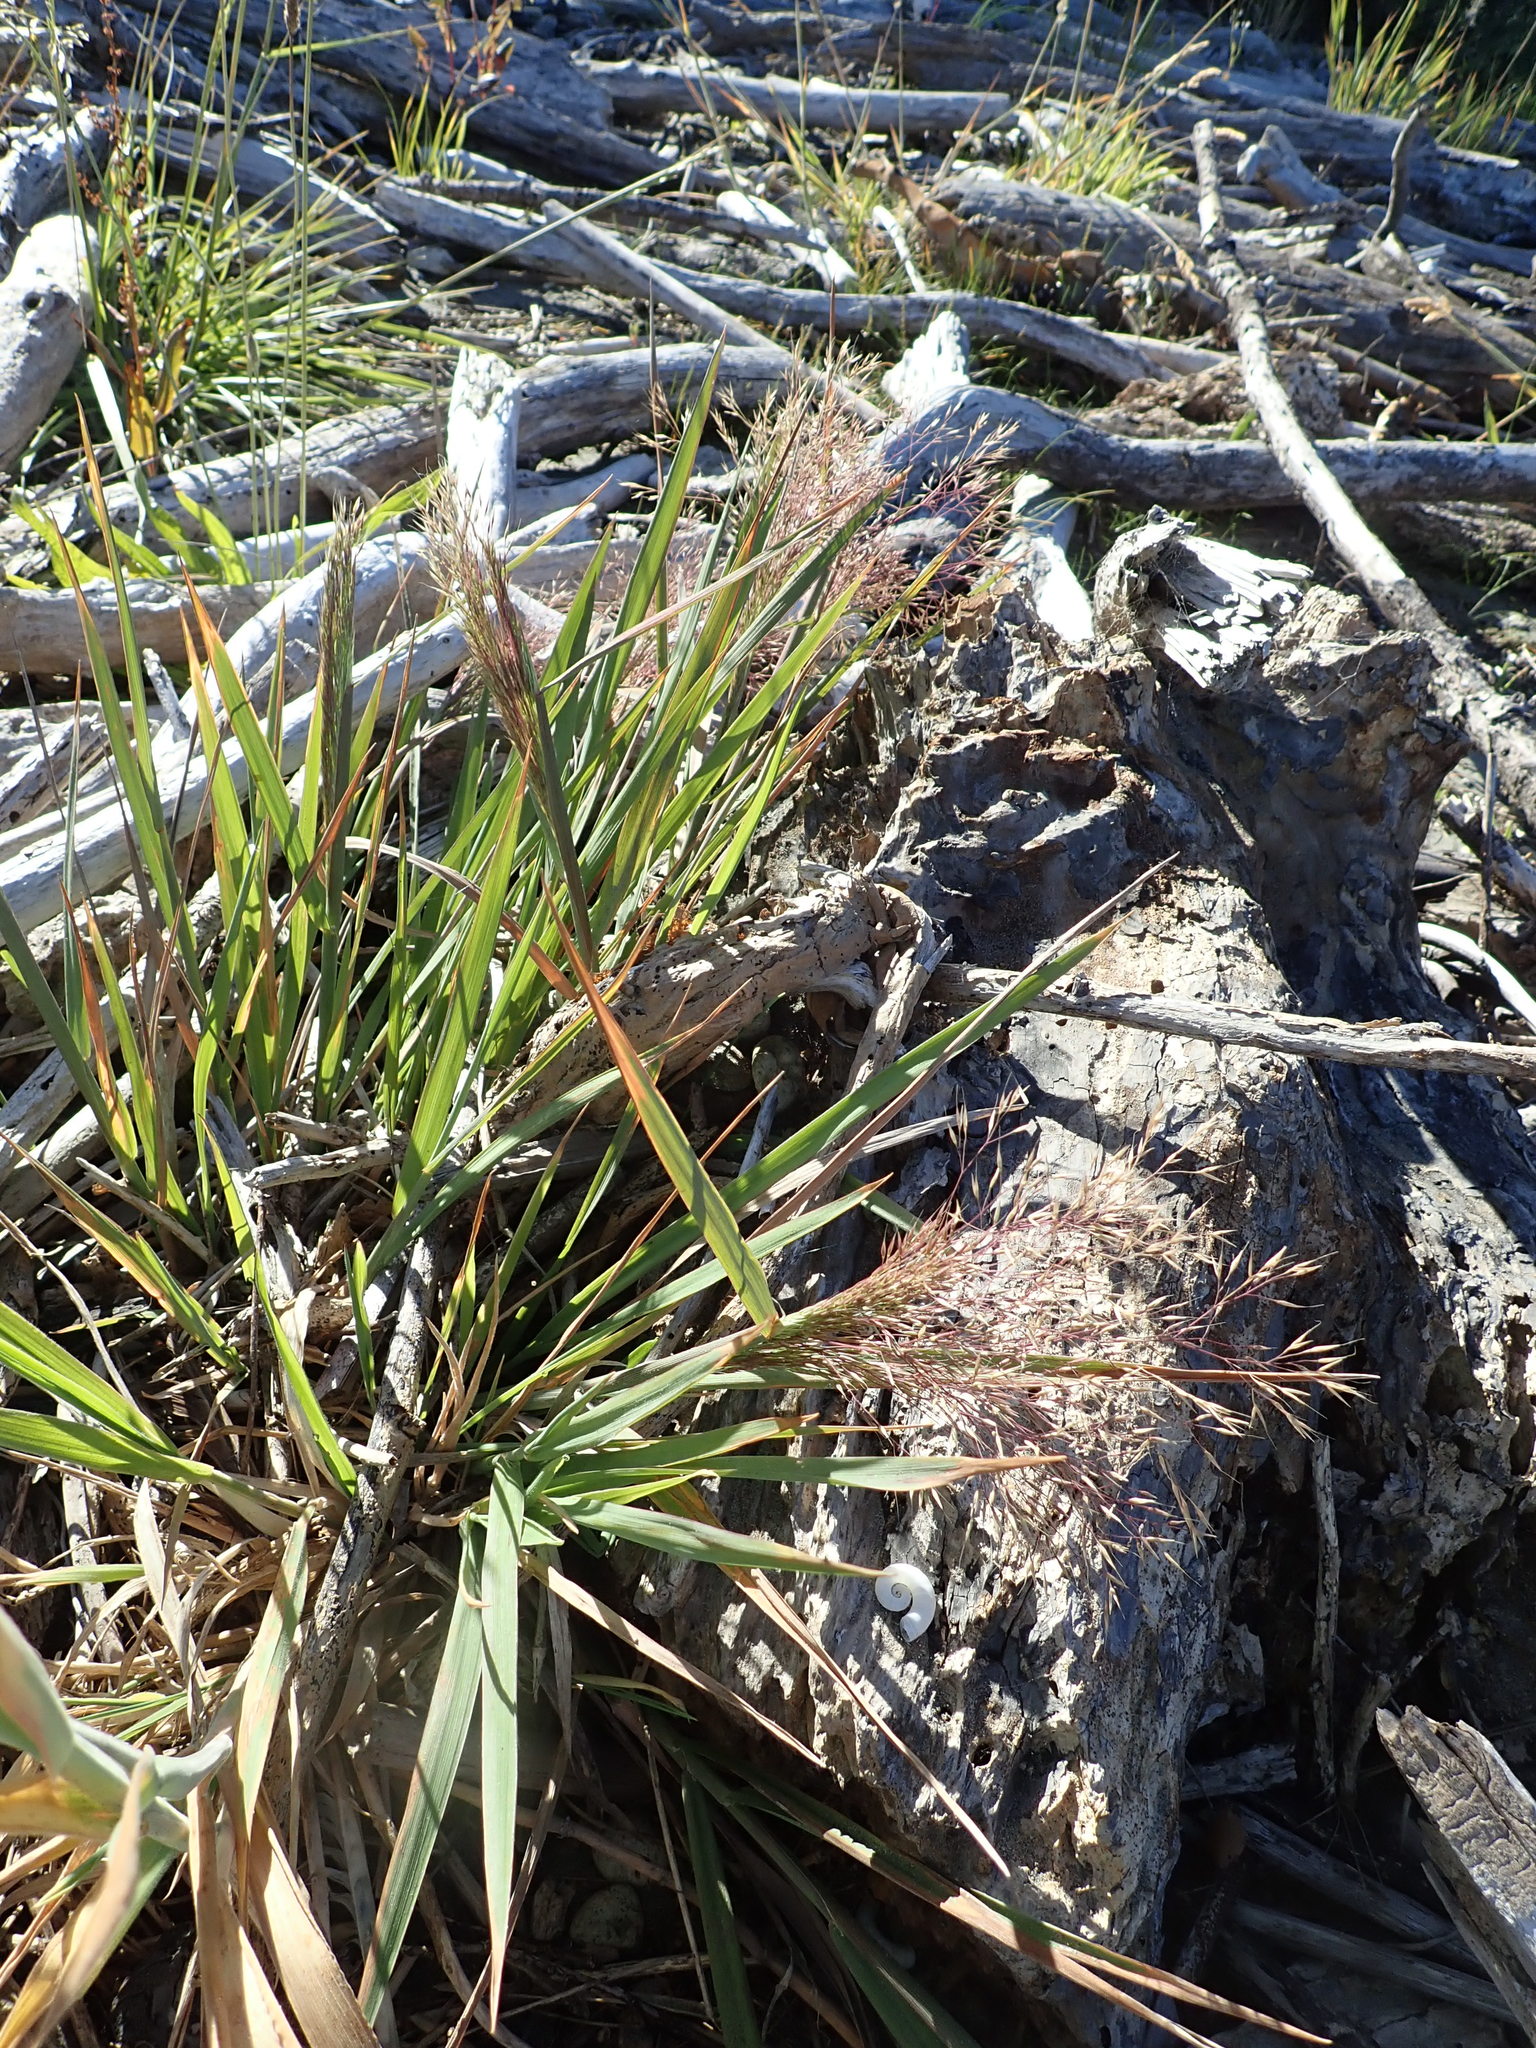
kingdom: Plantae
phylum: Tracheophyta
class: Liliopsida
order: Poales
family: Poaceae
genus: Lachnagrostis
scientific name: Lachnagrostis billardierei
